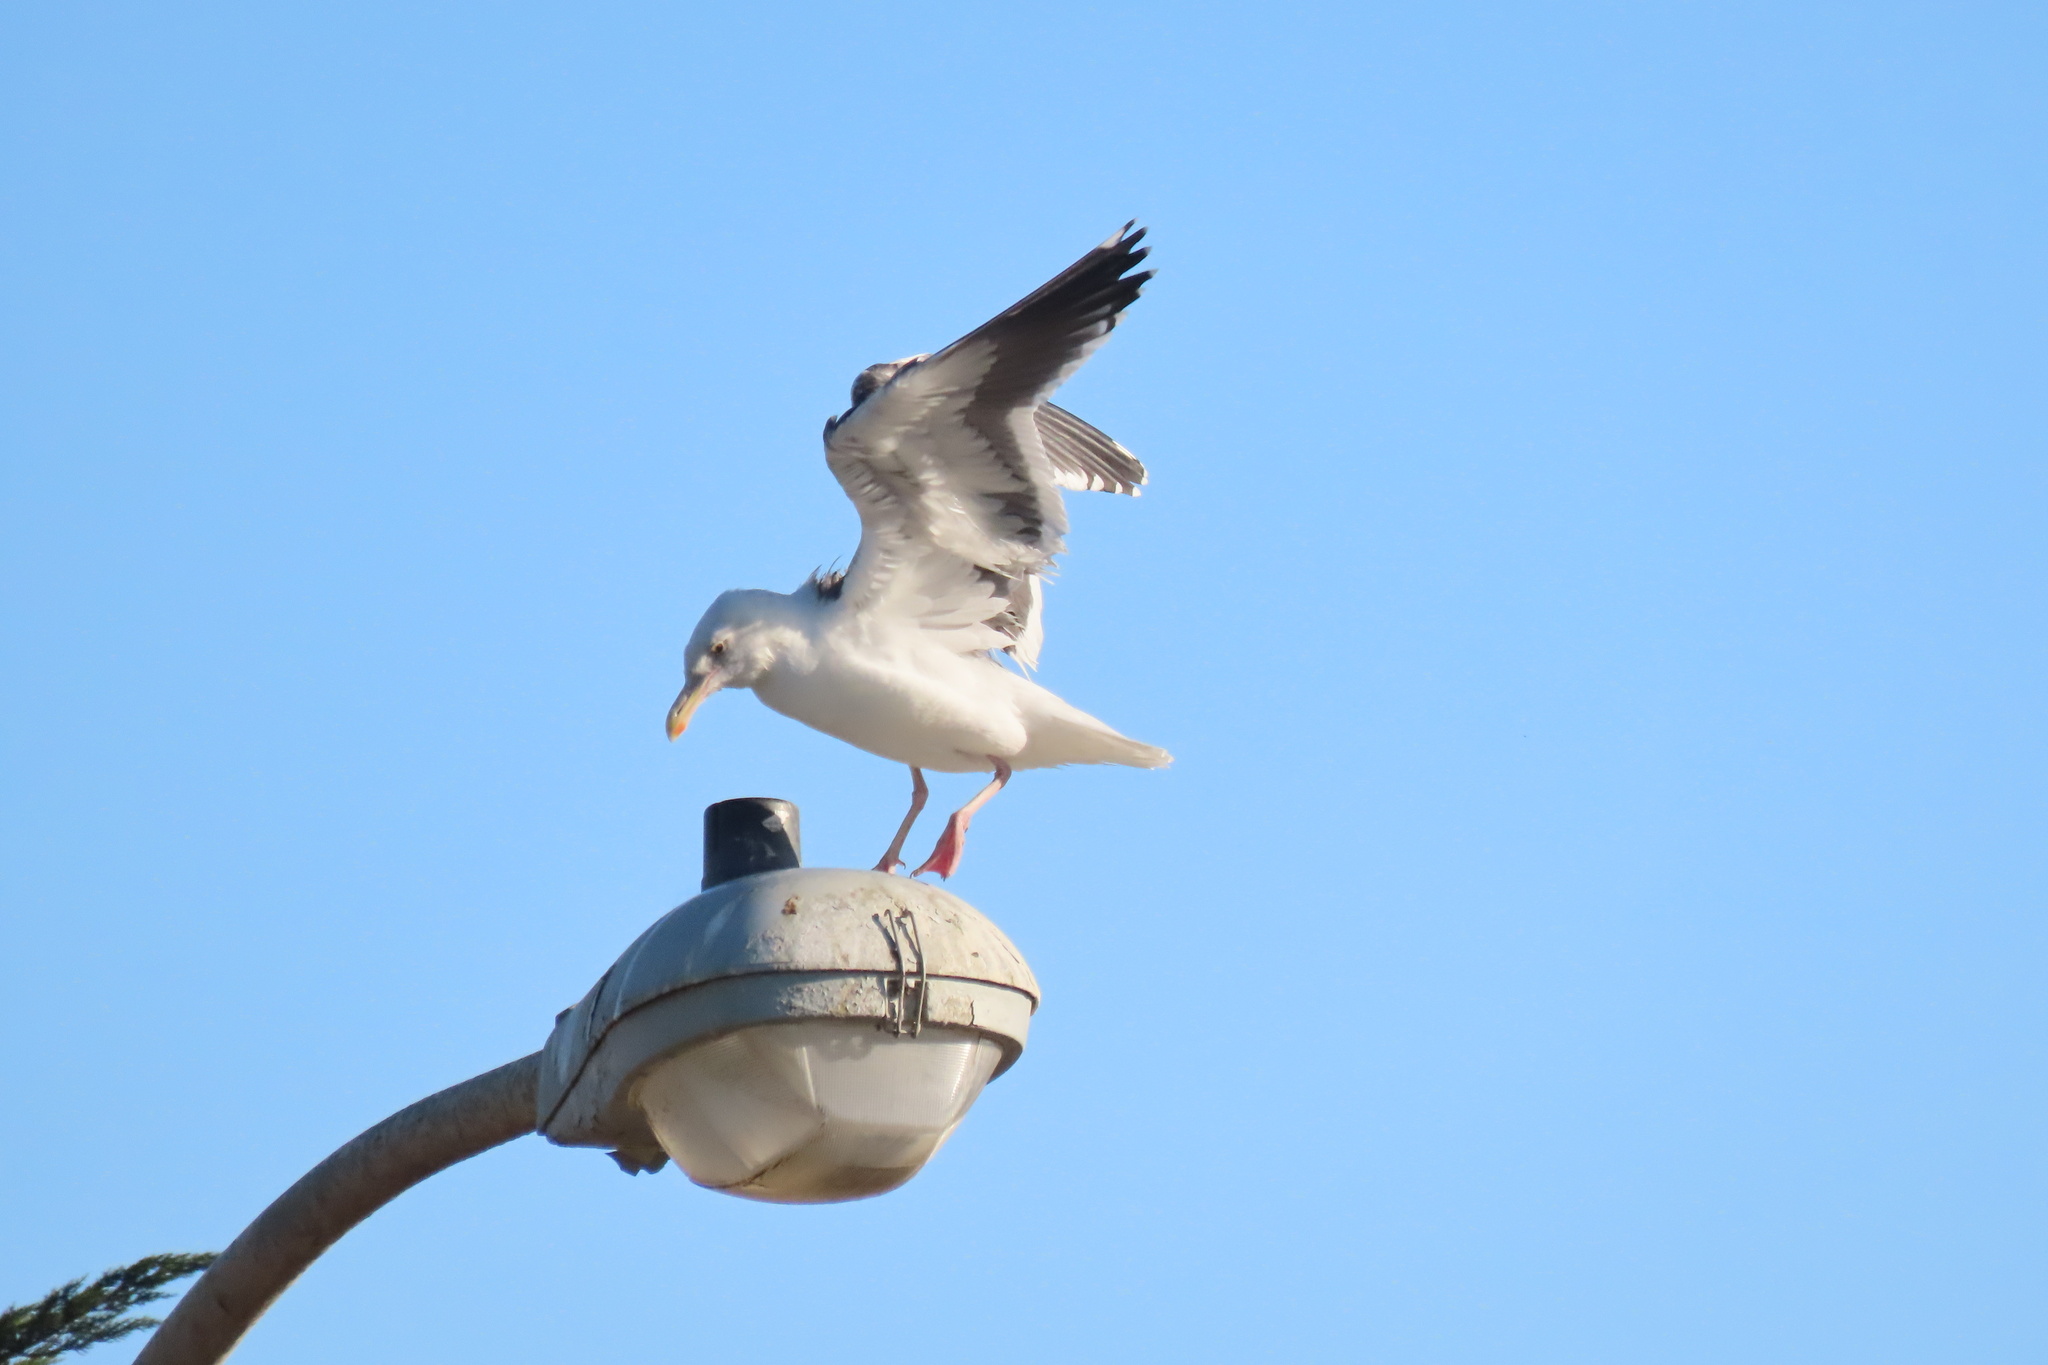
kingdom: Animalia
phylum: Chordata
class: Aves
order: Charadriiformes
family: Laridae
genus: Larus
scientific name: Larus occidentalis
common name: Western gull
